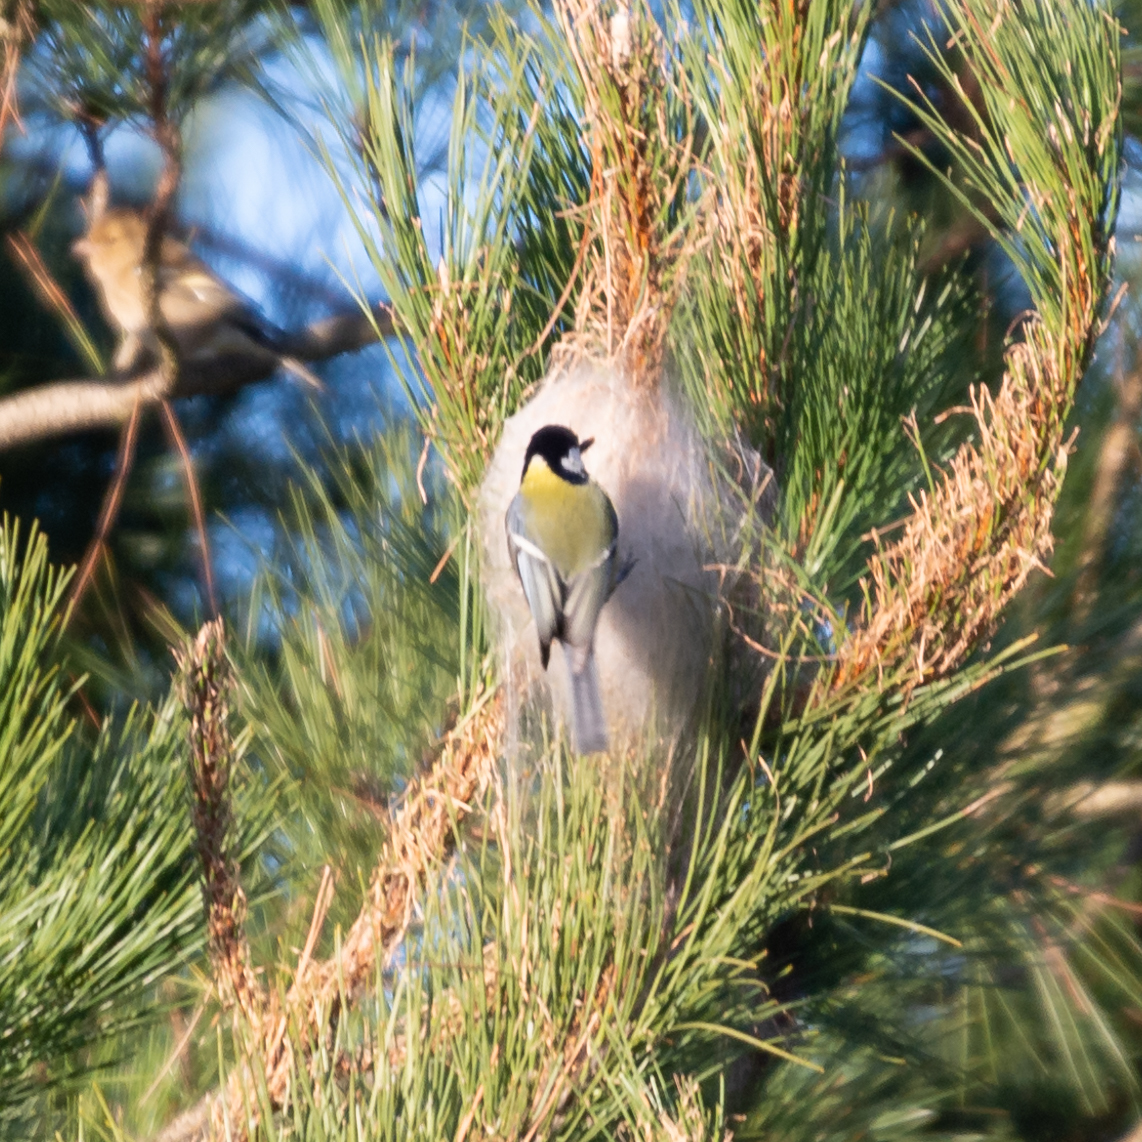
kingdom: Animalia
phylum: Chordata
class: Aves
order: Passeriformes
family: Paridae
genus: Parus
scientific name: Parus major
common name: Great tit
